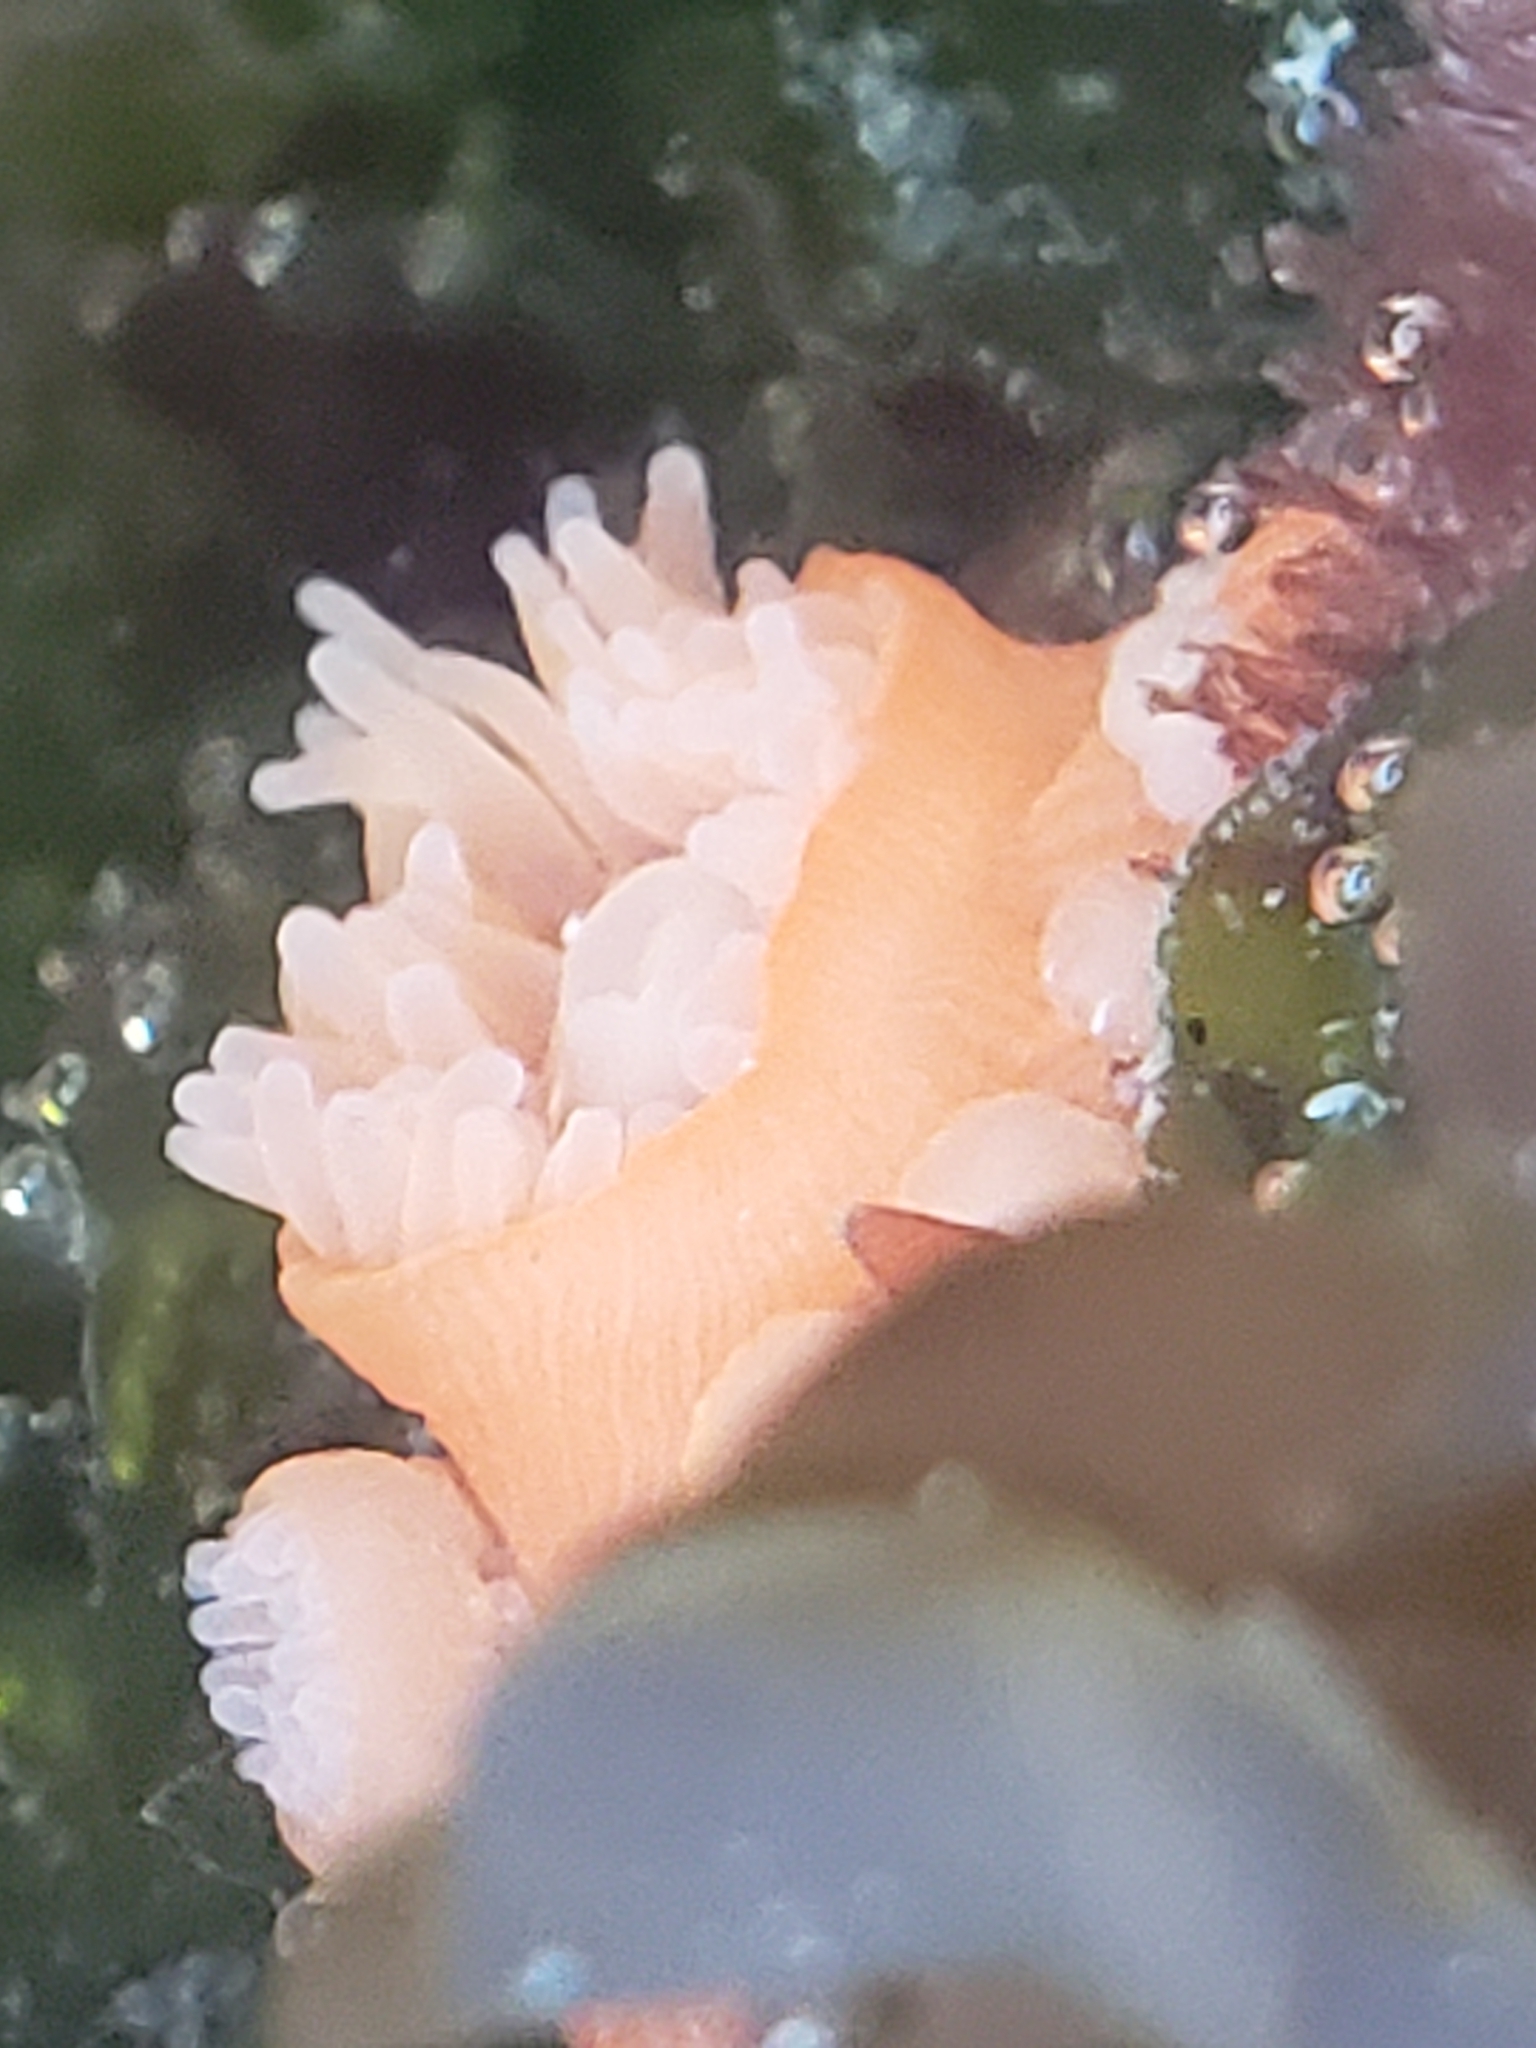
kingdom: Animalia
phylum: Cnidaria
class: Anthozoa
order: Actiniaria
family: Actiniidae
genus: Epiactis
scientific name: Epiactis prolifera
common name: Brooding anemone
